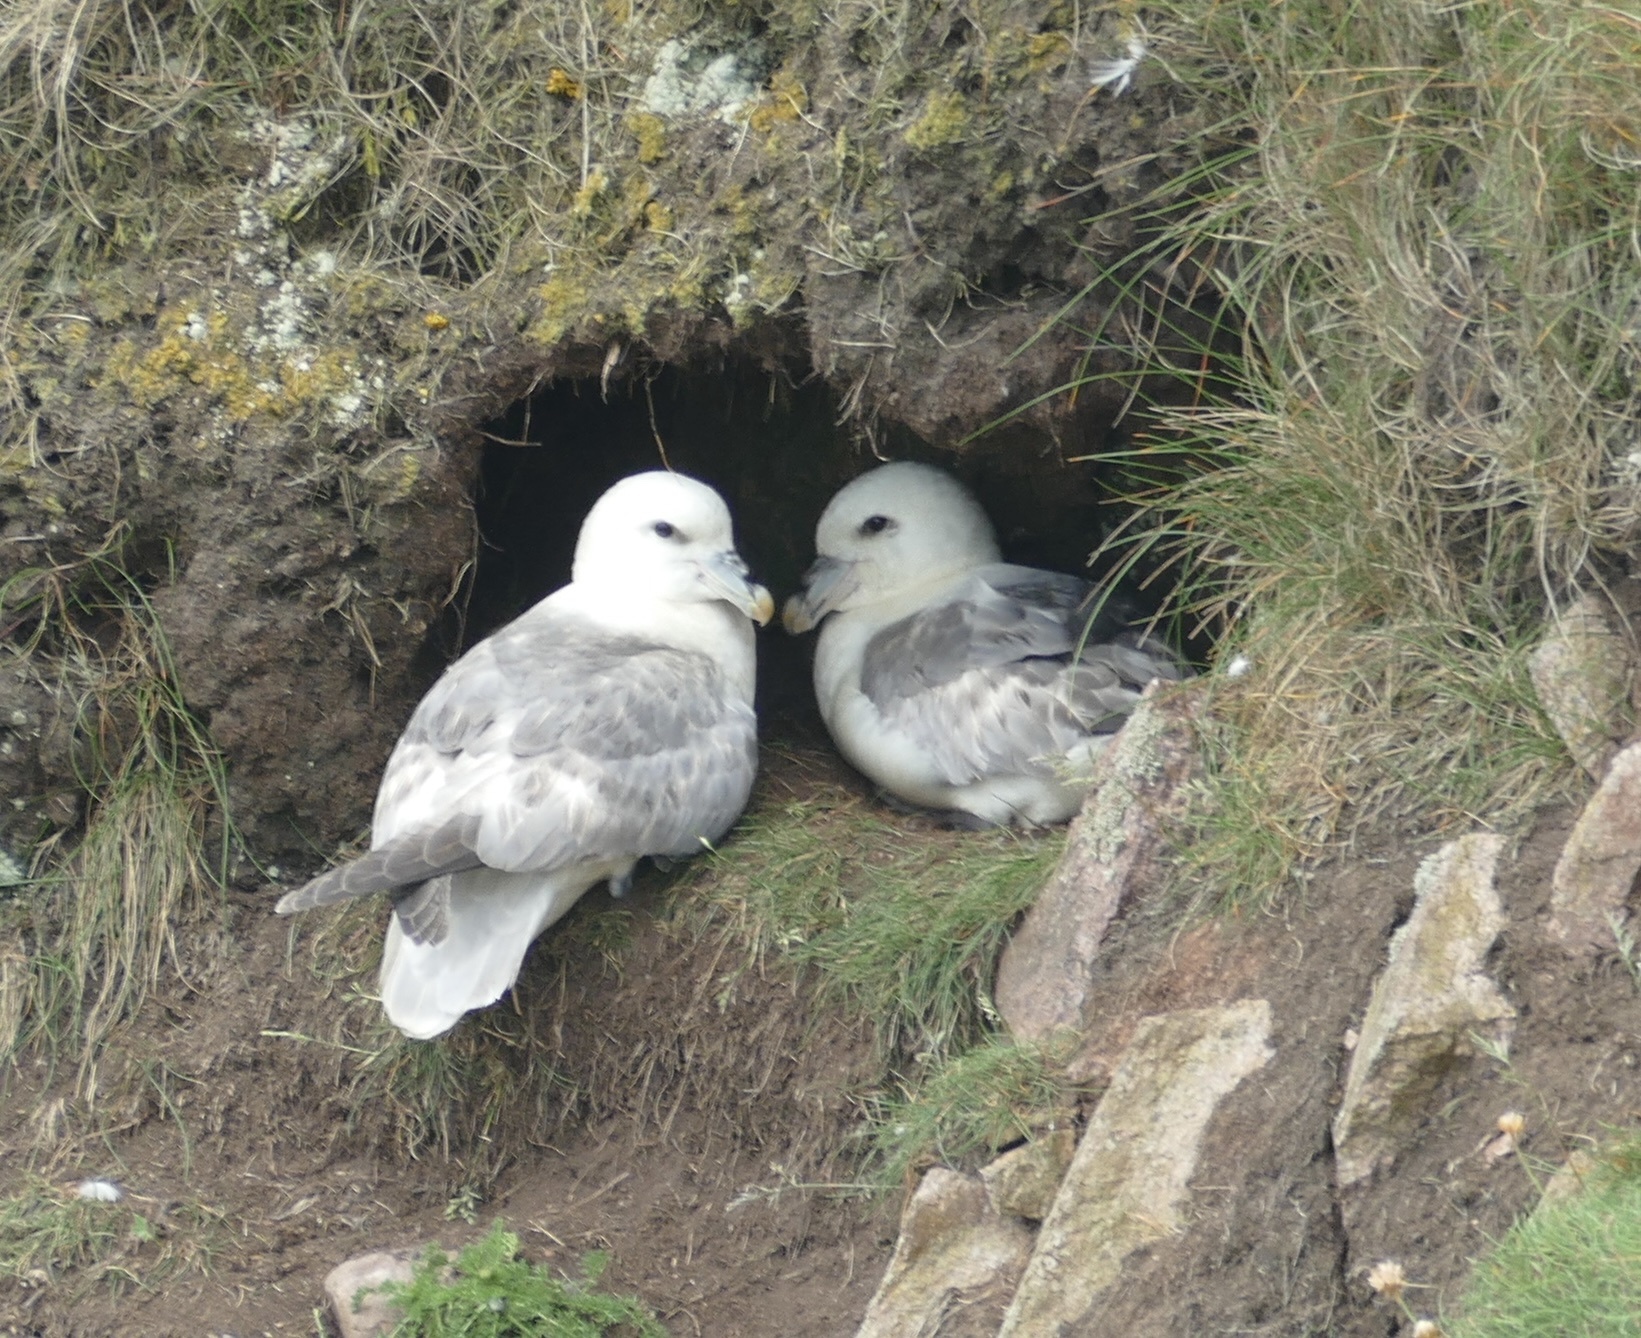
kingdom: Animalia
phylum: Chordata
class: Aves
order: Procellariiformes
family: Procellariidae
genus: Fulmarus
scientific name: Fulmarus glacialis
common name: Northern fulmar
